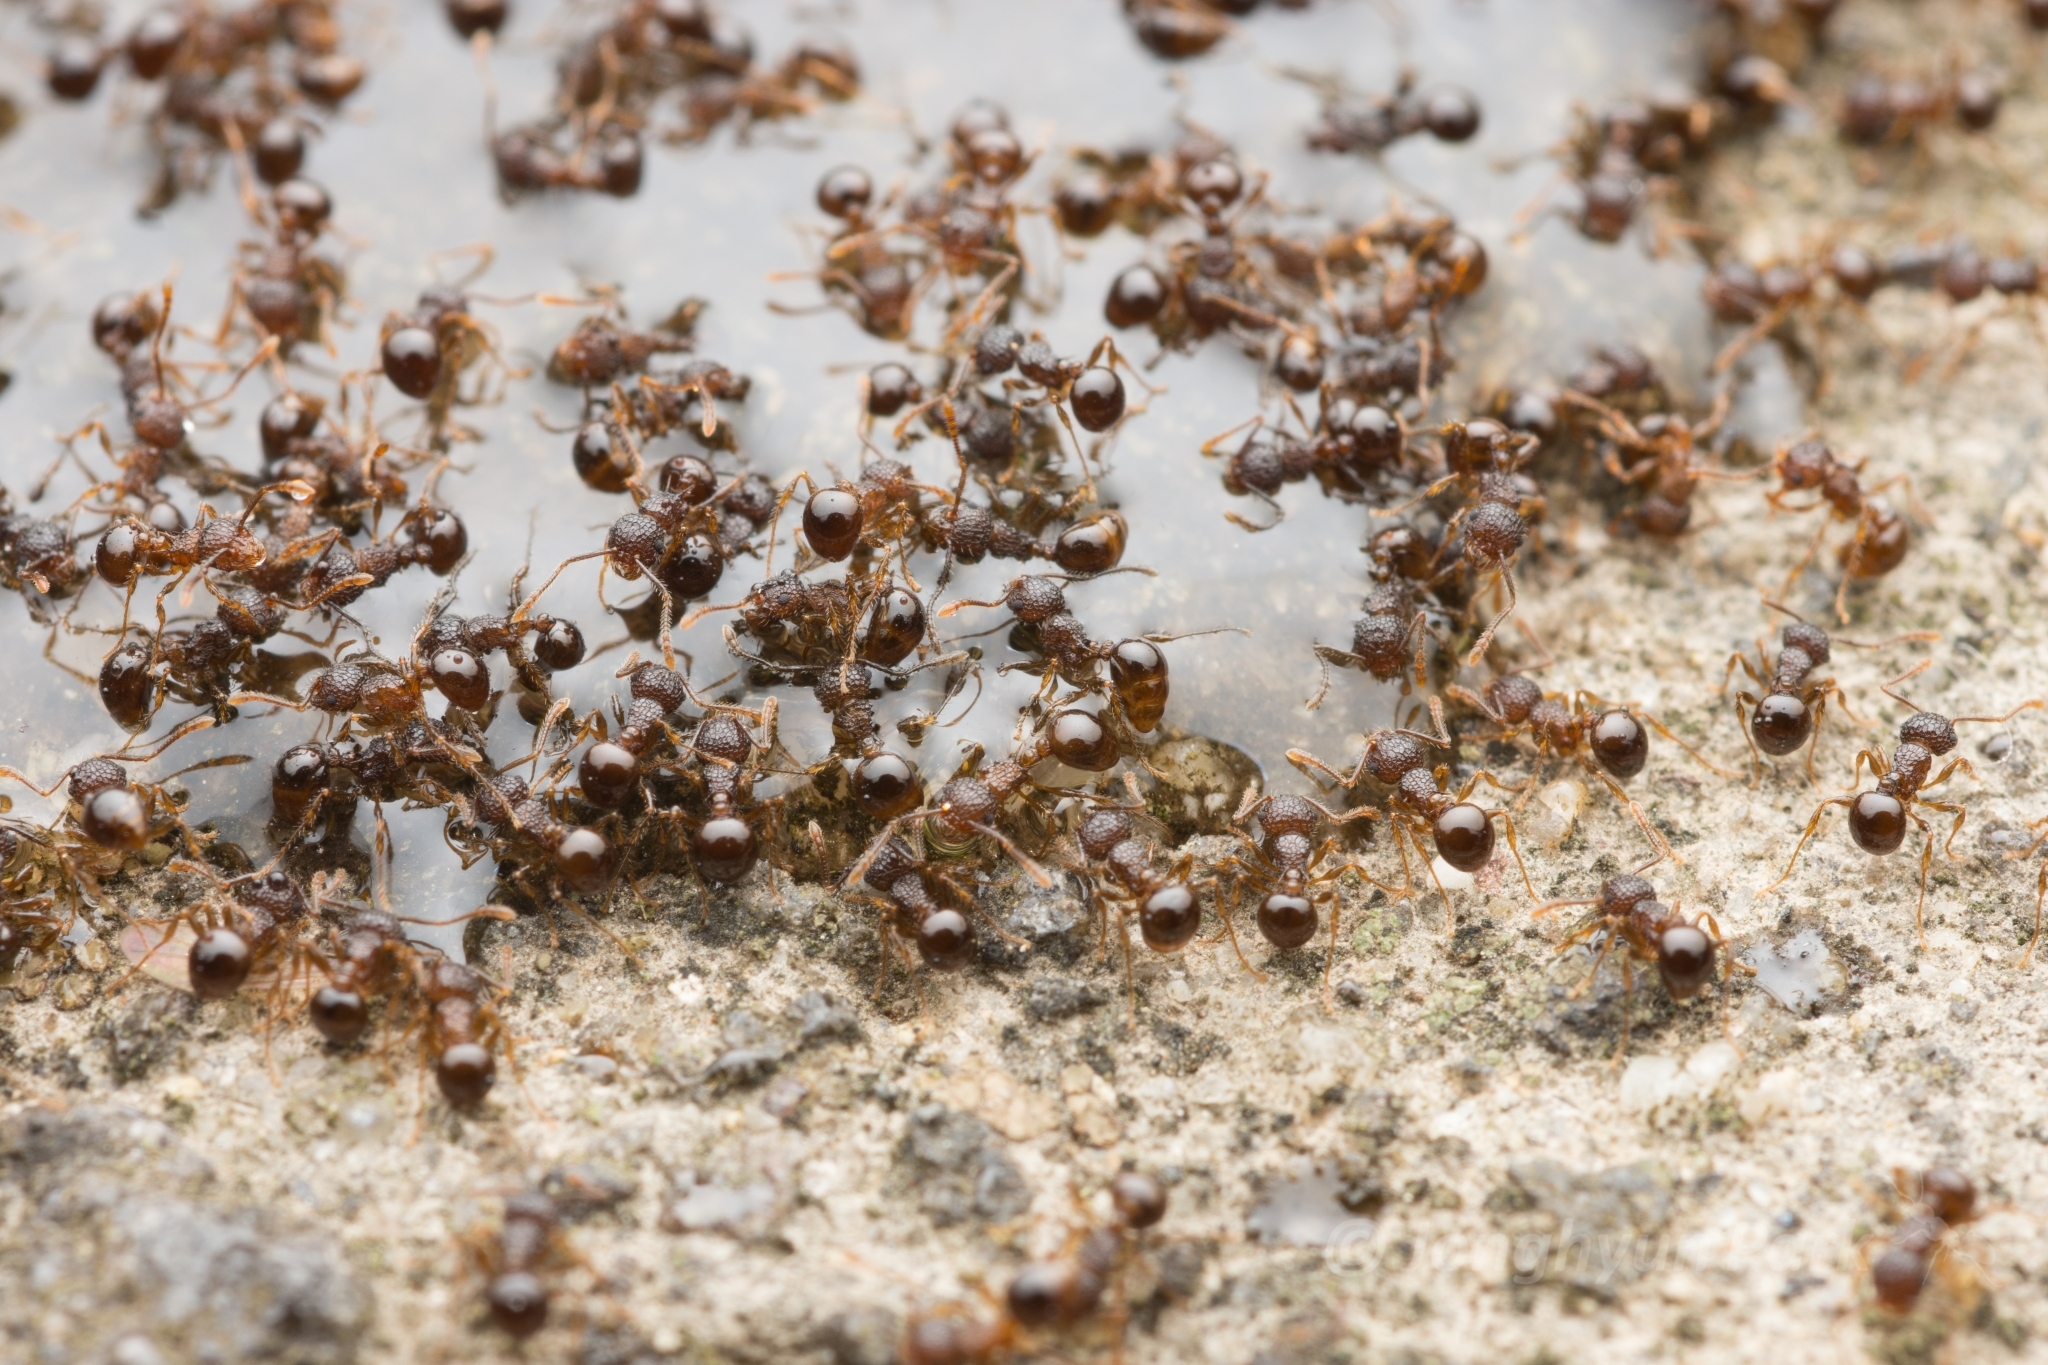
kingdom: Animalia
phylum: Arthropoda
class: Insecta
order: Hymenoptera
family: Formicidae
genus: Pristomyrmex
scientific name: Pristomyrmex punctatus
